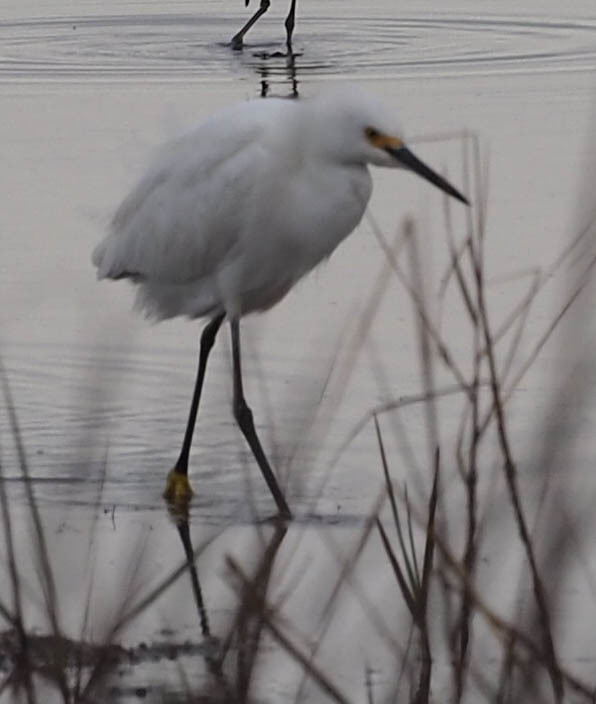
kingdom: Animalia
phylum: Chordata
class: Aves
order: Pelecaniformes
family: Ardeidae
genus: Egretta
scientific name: Egretta thula
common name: Snowy egret
